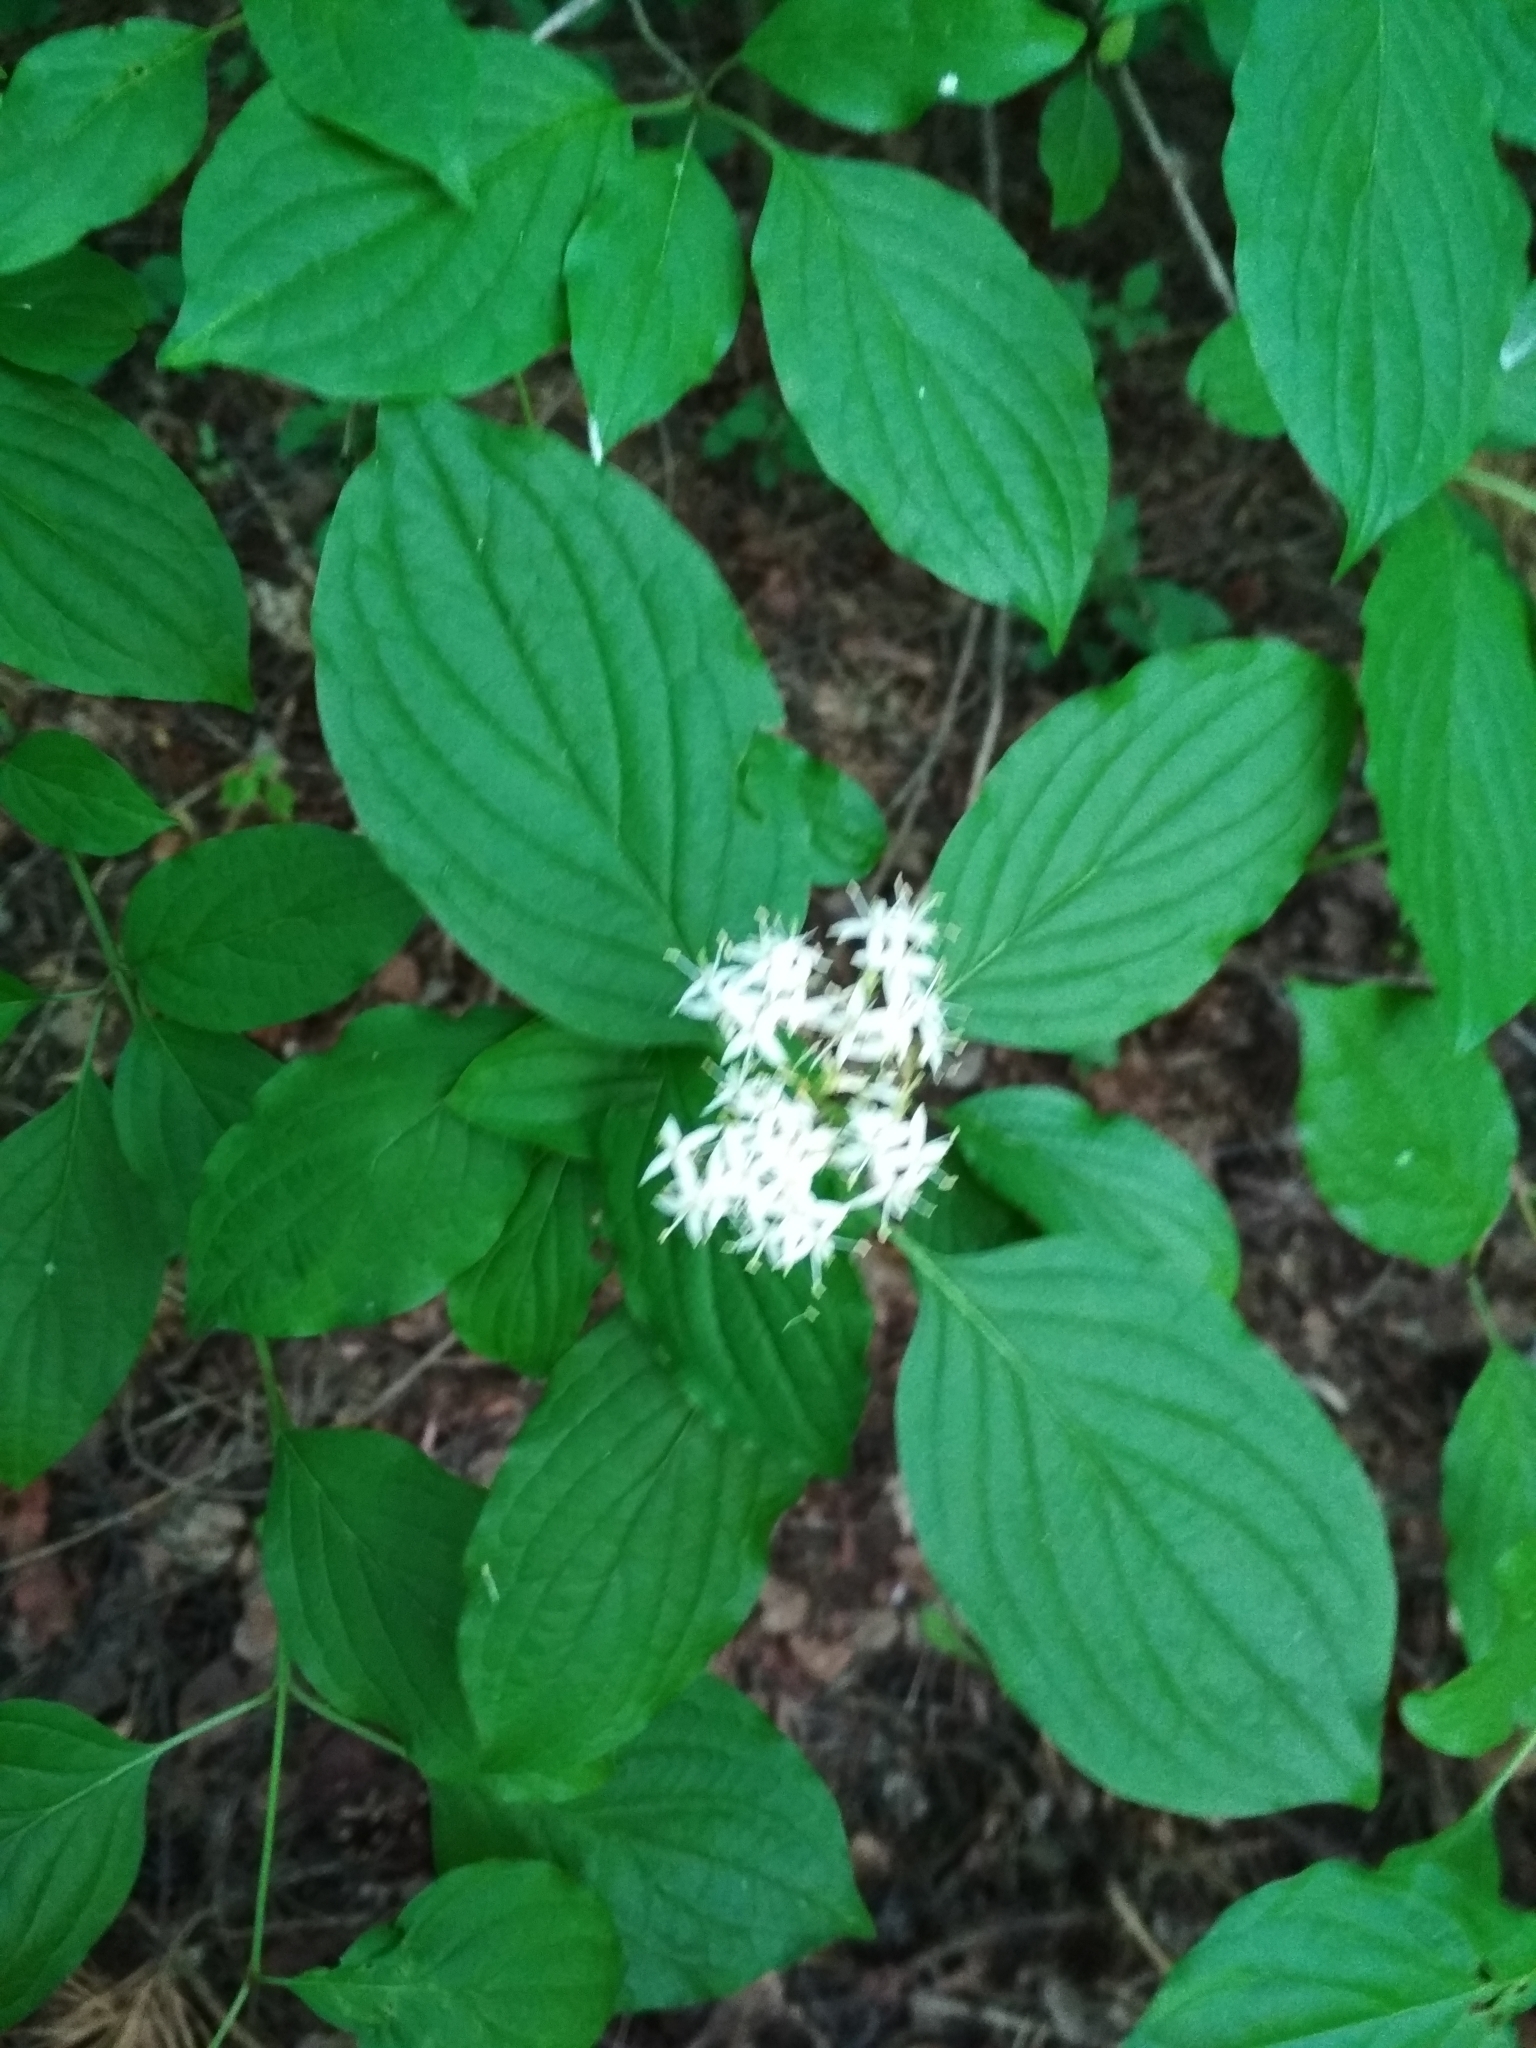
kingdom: Plantae
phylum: Tracheophyta
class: Magnoliopsida
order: Cornales
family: Cornaceae
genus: Cornus
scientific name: Cornus sanguinea
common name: Dogwood
